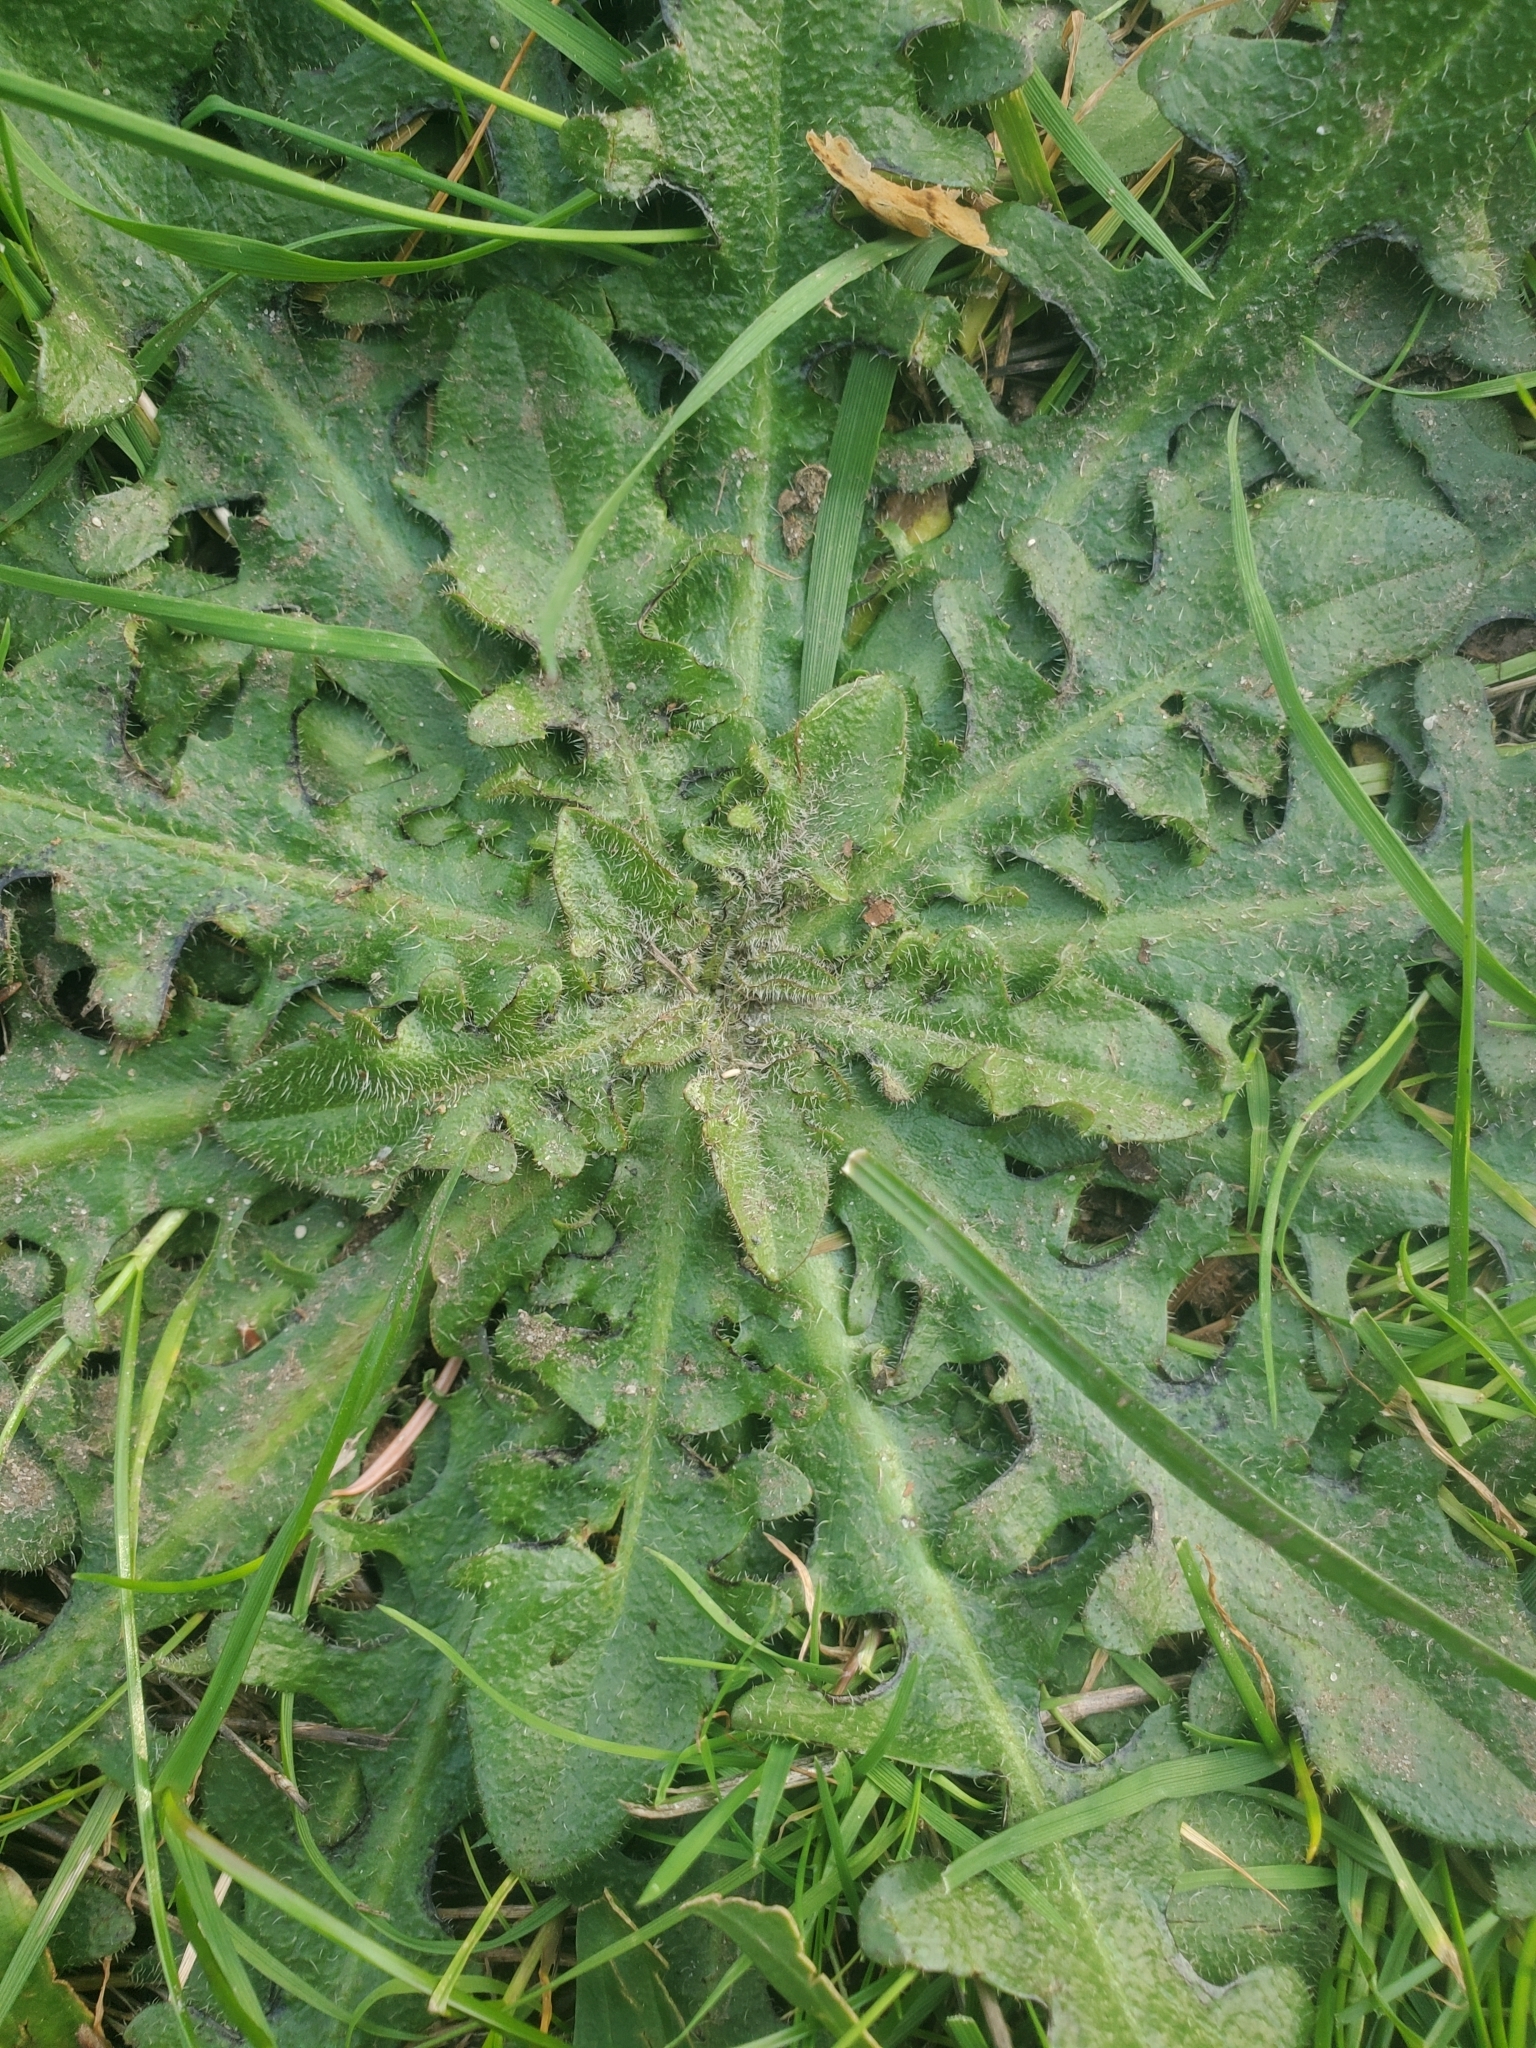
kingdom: Plantae
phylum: Tracheophyta
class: Magnoliopsida
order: Asterales
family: Asteraceae
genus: Hypochaeris
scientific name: Hypochaeris radicata
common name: Flatweed
